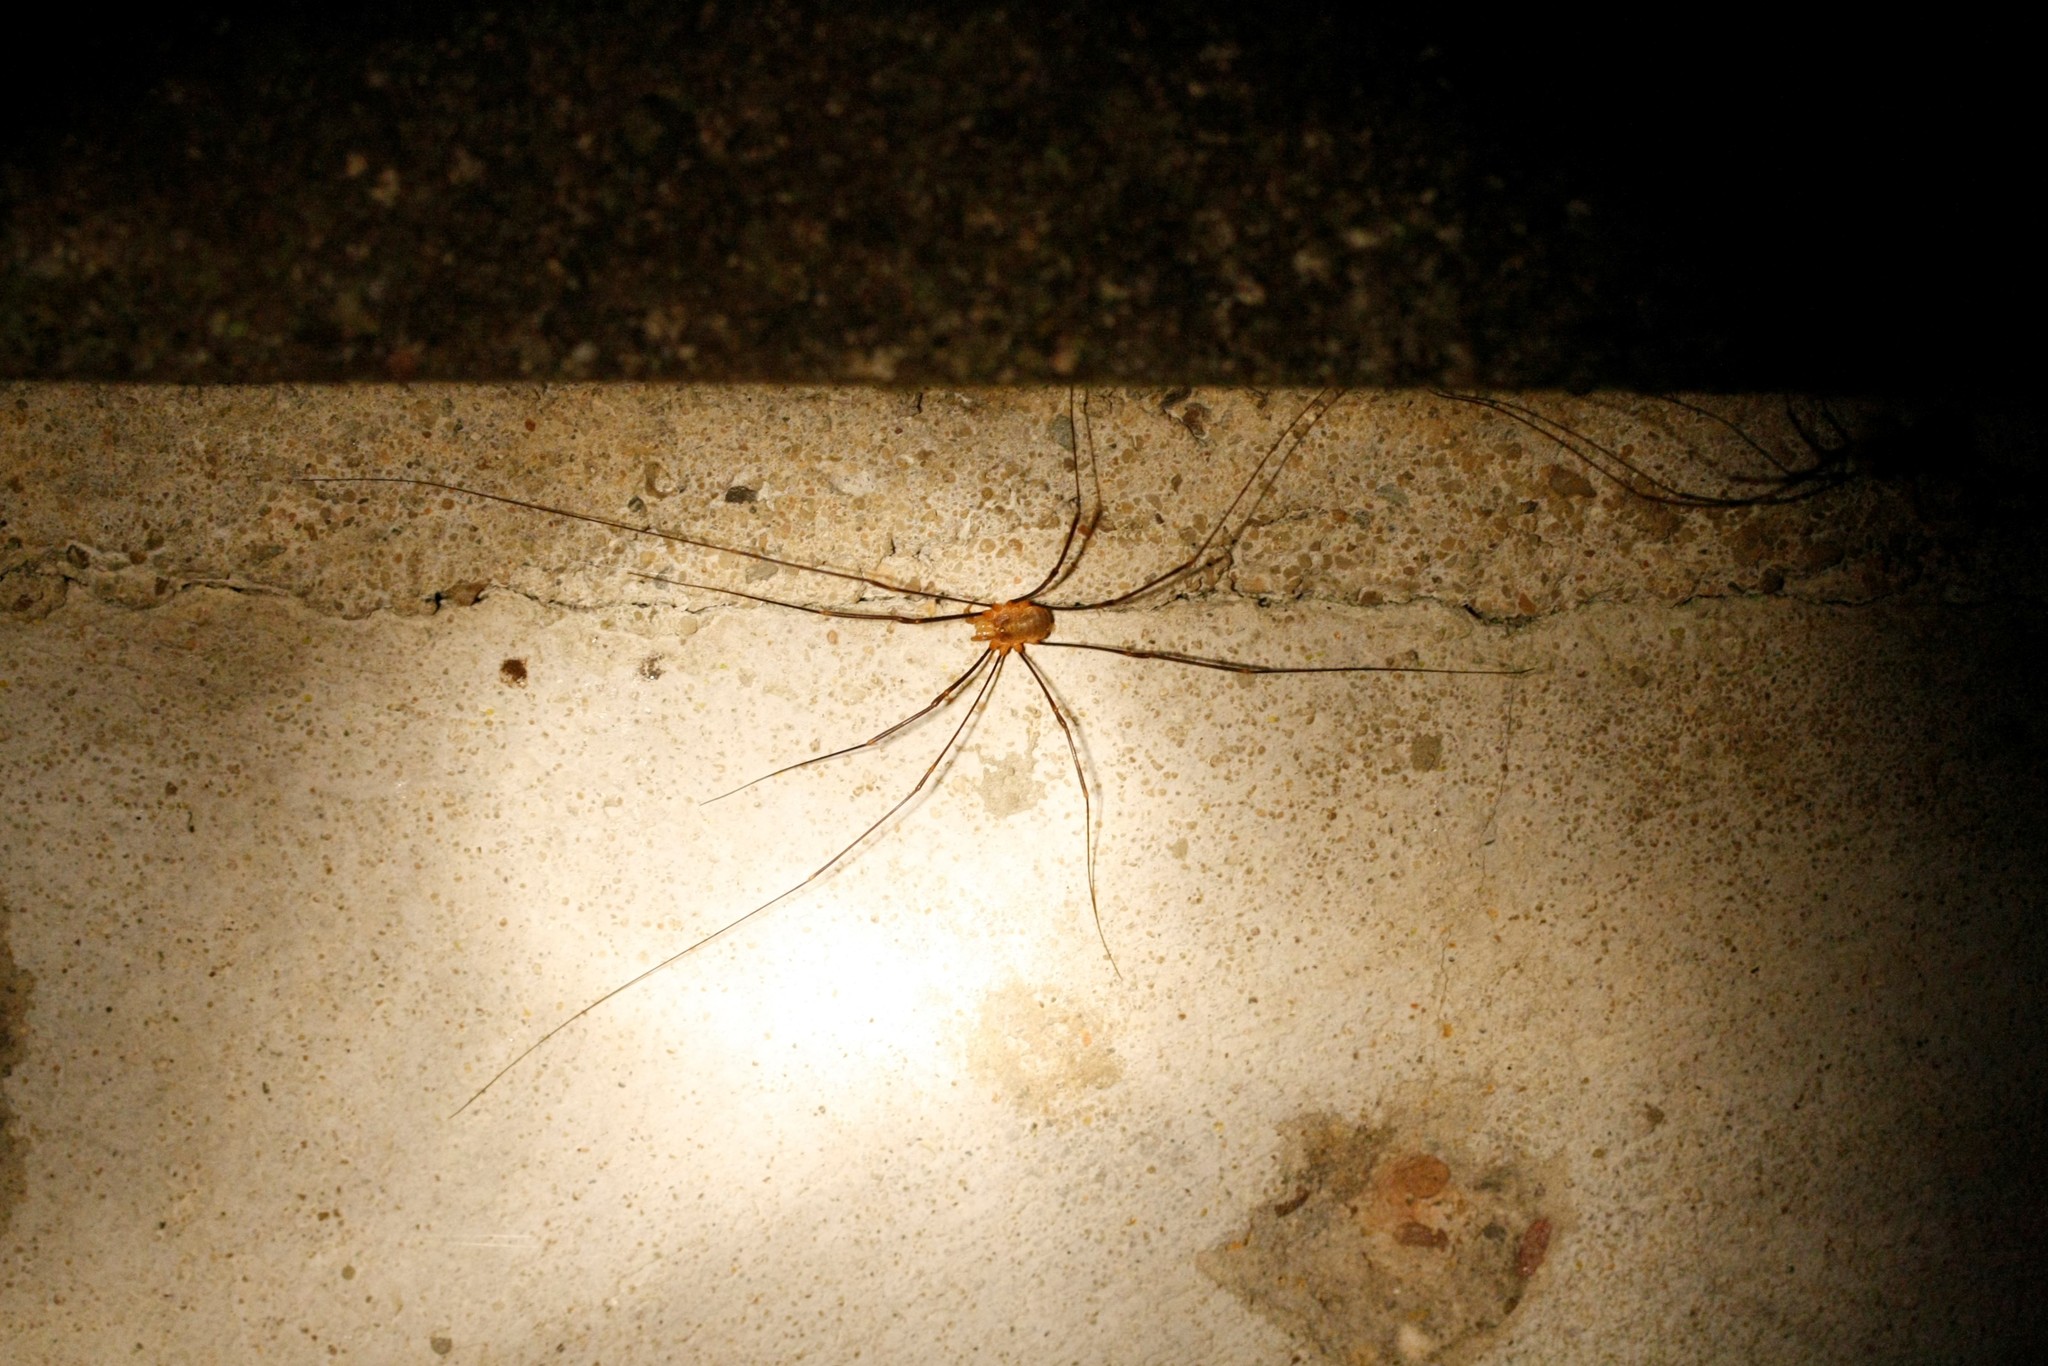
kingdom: Animalia
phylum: Arthropoda
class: Arachnida
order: Opiliones
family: Phalangiidae
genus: Opilio
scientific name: Opilio canestrinii
